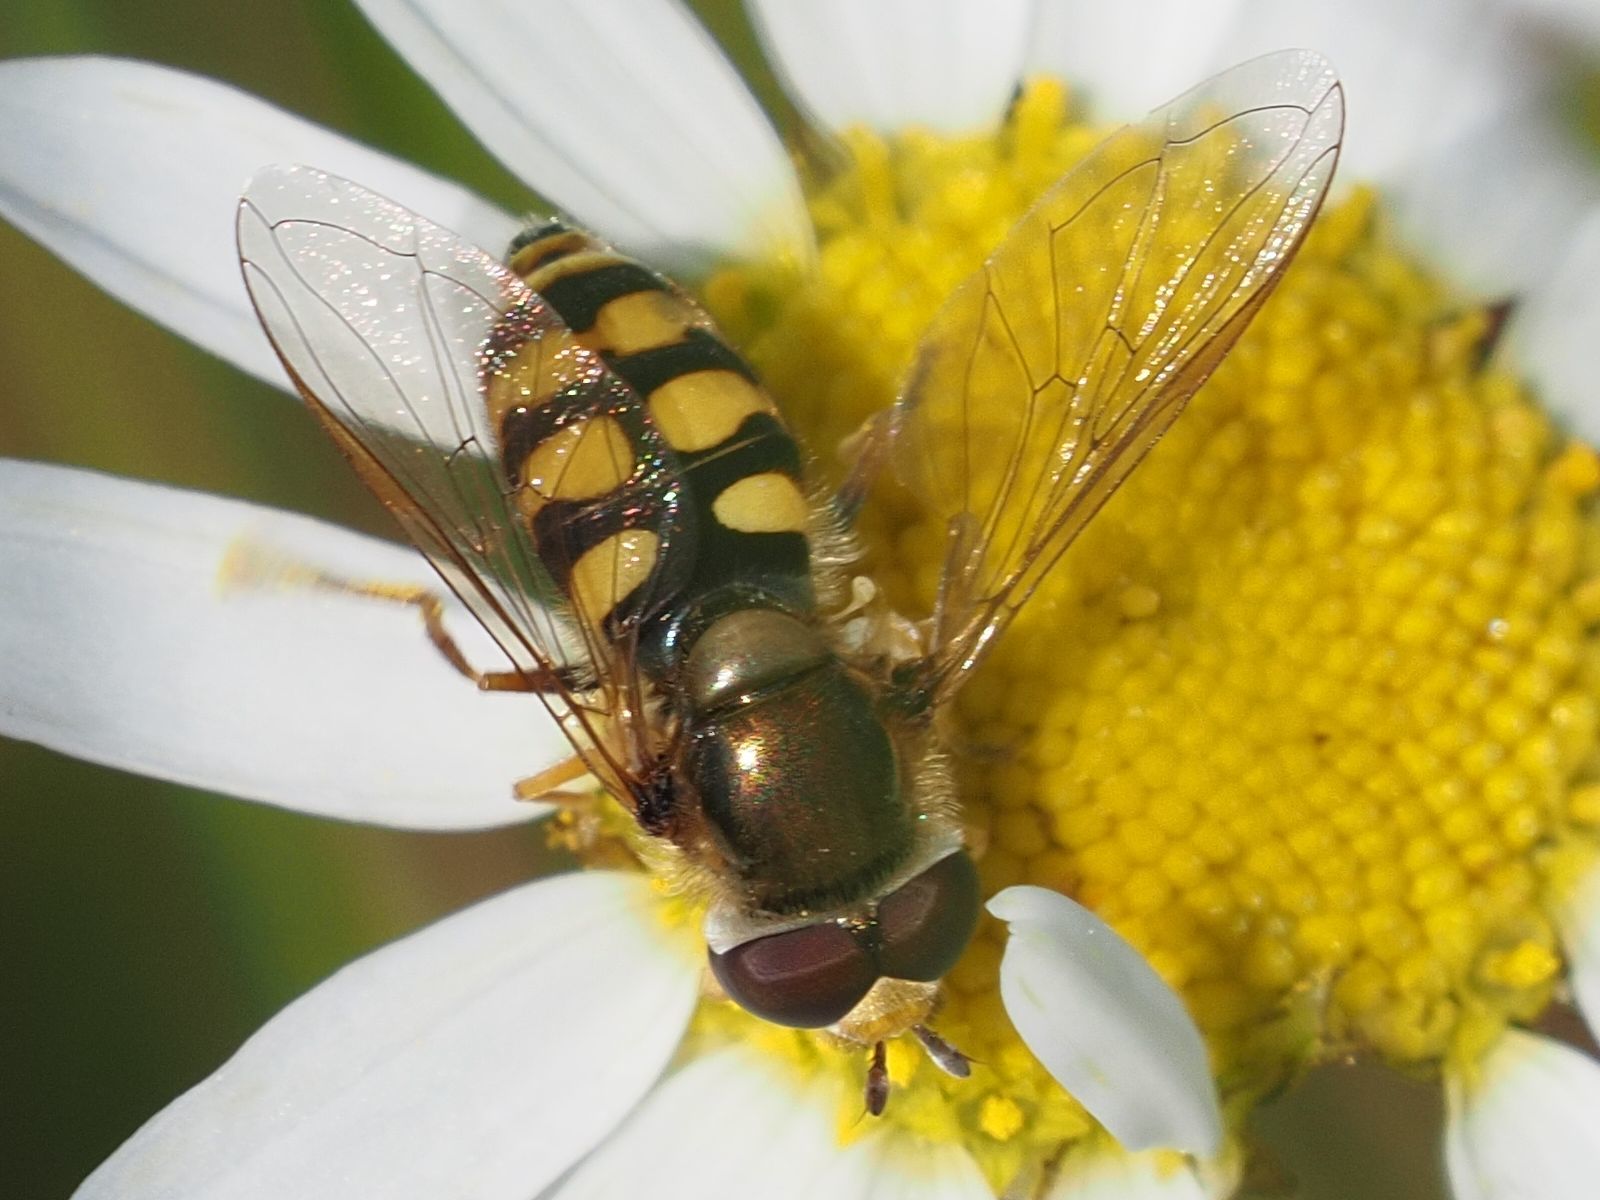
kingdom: Animalia
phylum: Arthropoda
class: Insecta
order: Diptera
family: Syrphidae
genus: Eupeodes
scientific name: Eupeodes corollae
